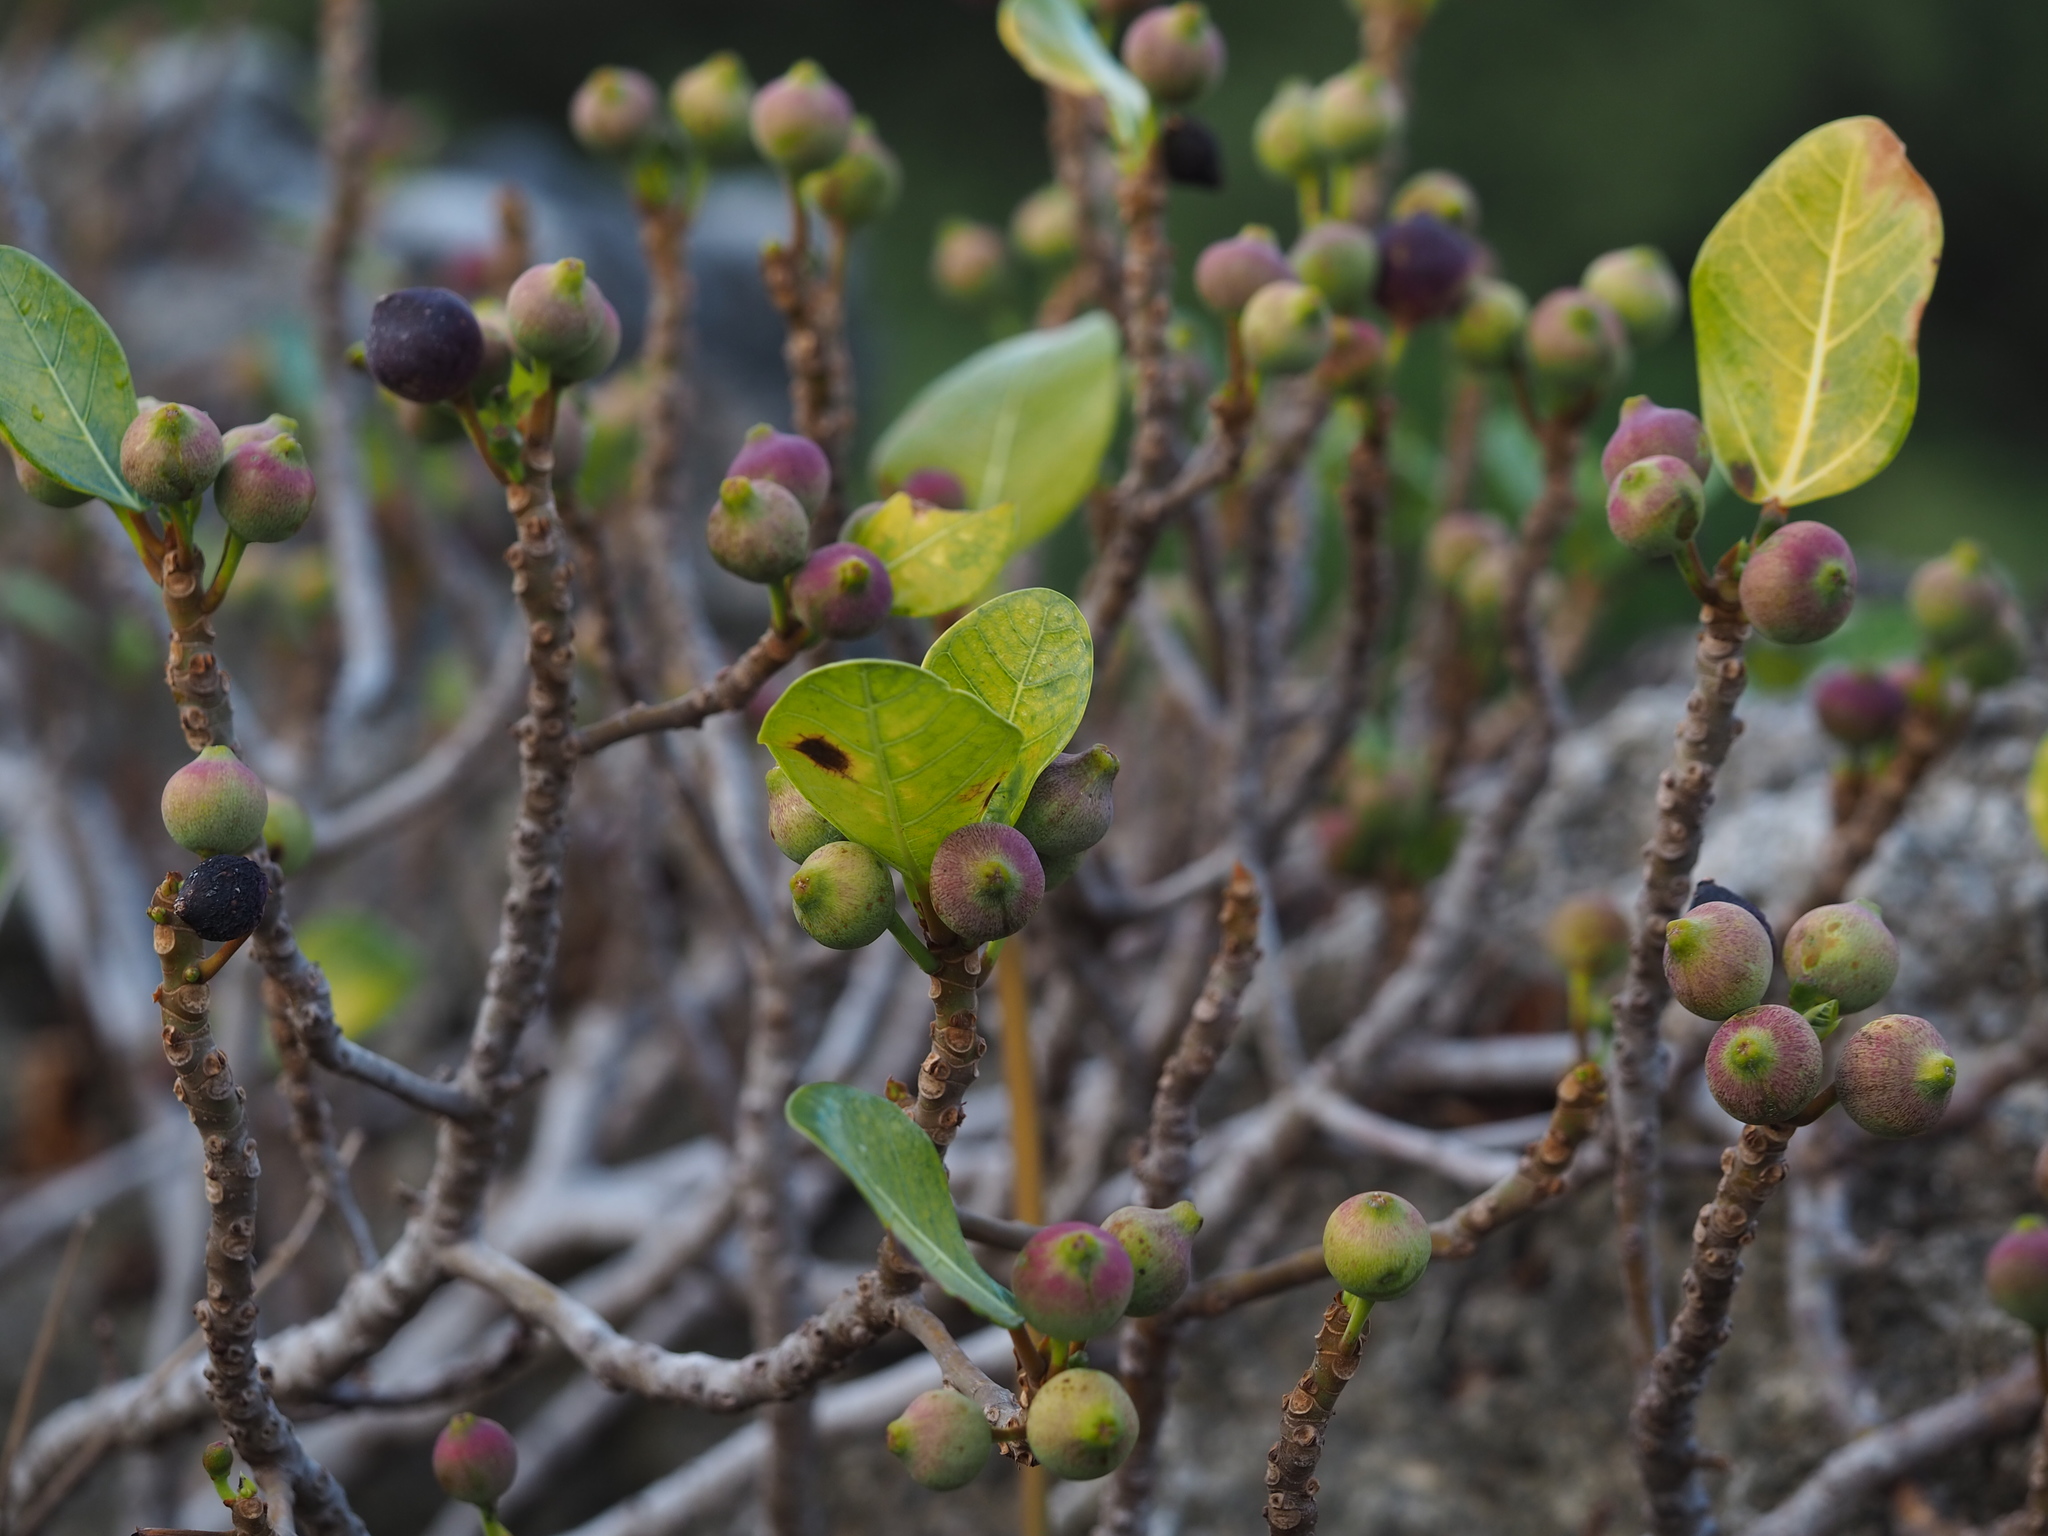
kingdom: Plantae
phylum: Tracheophyta
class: Magnoliopsida
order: Rosales
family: Moraceae
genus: Ficus
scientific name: Ficus pedunculosa
